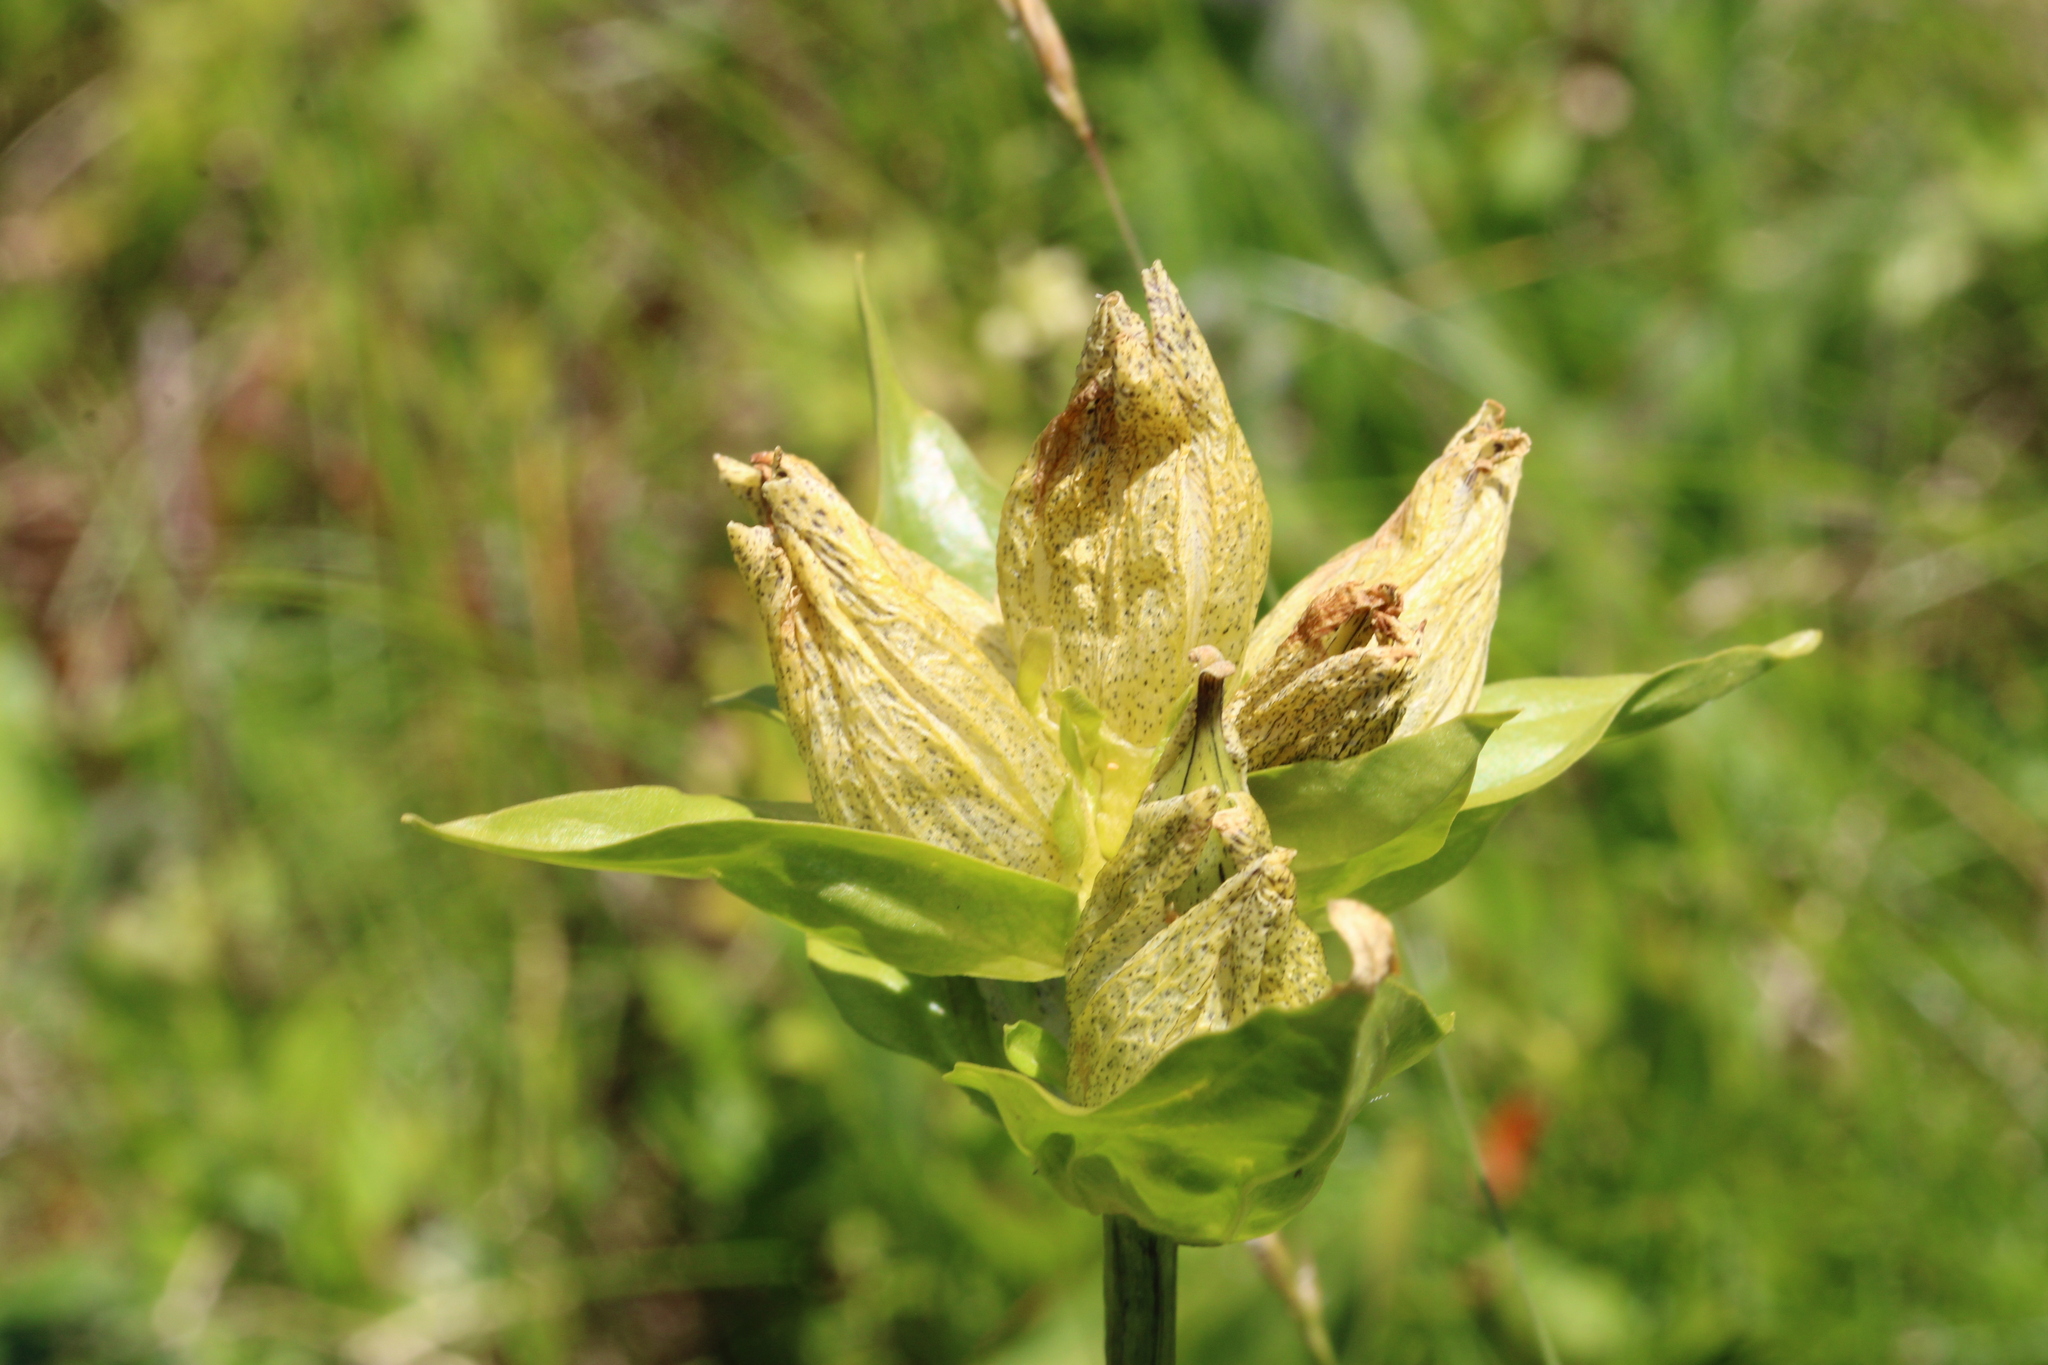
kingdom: Plantae
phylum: Tracheophyta
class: Magnoliopsida
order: Gentianales
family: Gentianaceae
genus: Gentiana
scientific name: Gentiana punctata
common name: Spotted gentian
